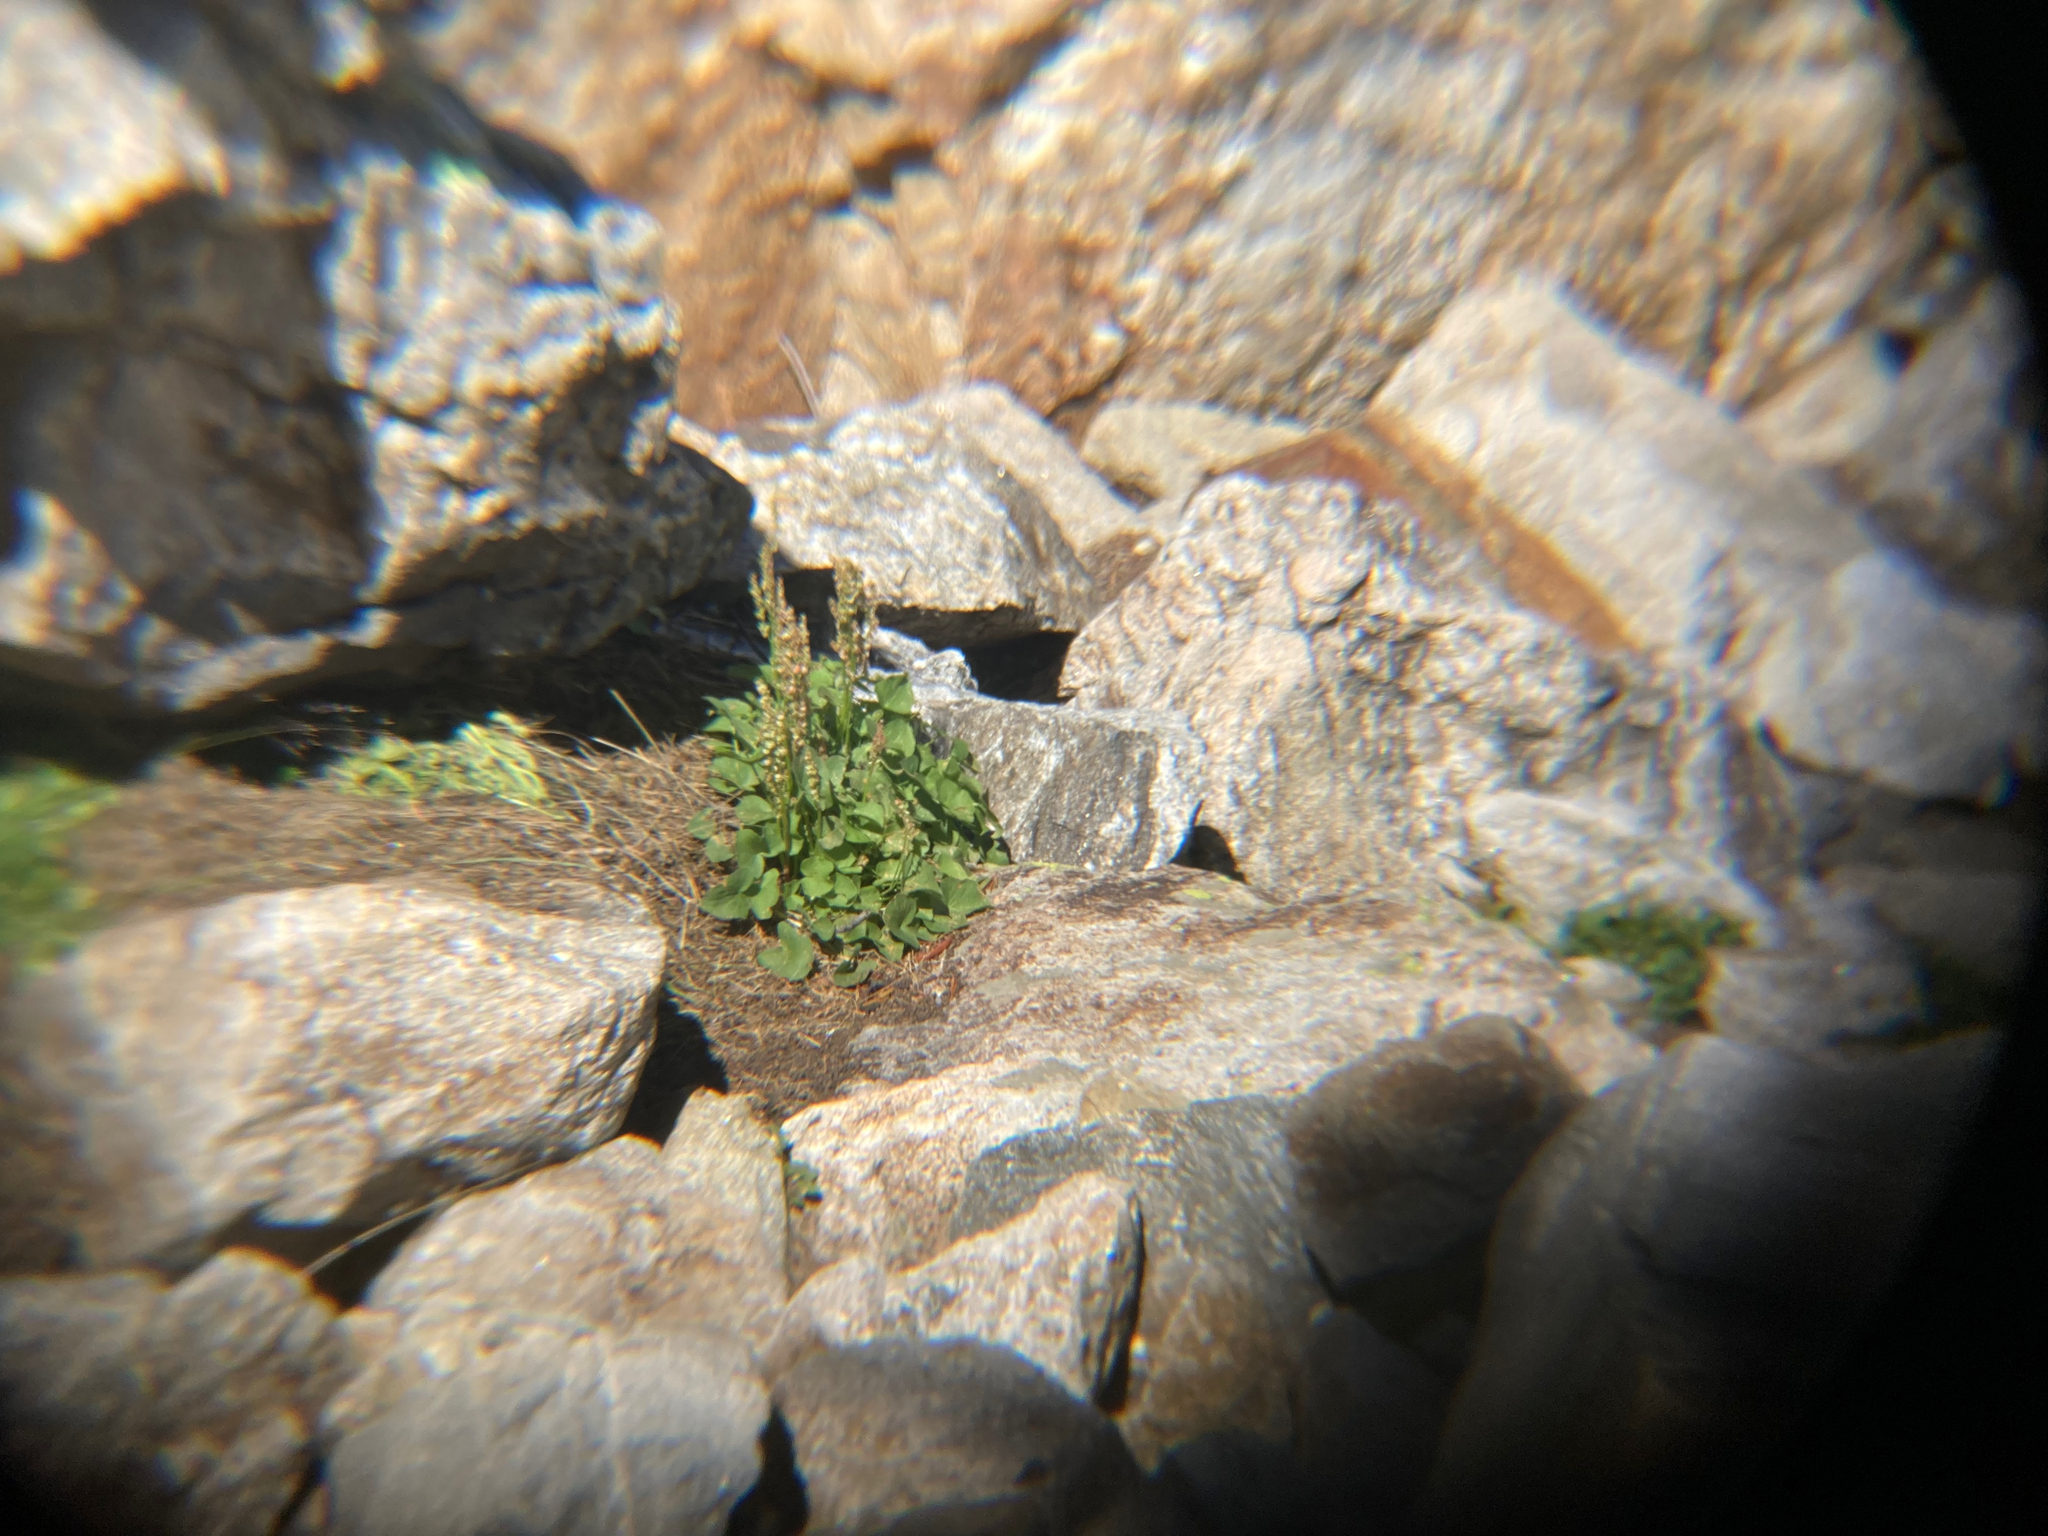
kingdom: Plantae
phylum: Tracheophyta
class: Magnoliopsida
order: Caryophyllales
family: Polygonaceae
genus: Oxyria
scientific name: Oxyria digyna
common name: Alpine mountain-sorrel
